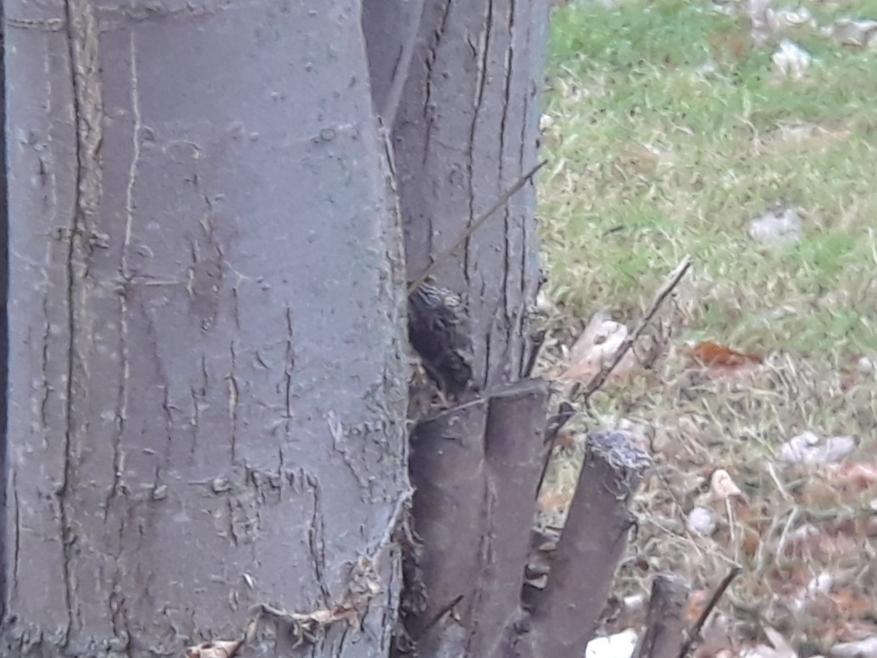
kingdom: Animalia
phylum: Chordata
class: Aves
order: Passeriformes
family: Certhiidae
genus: Certhia
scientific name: Certhia americana
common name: Brown creeper
